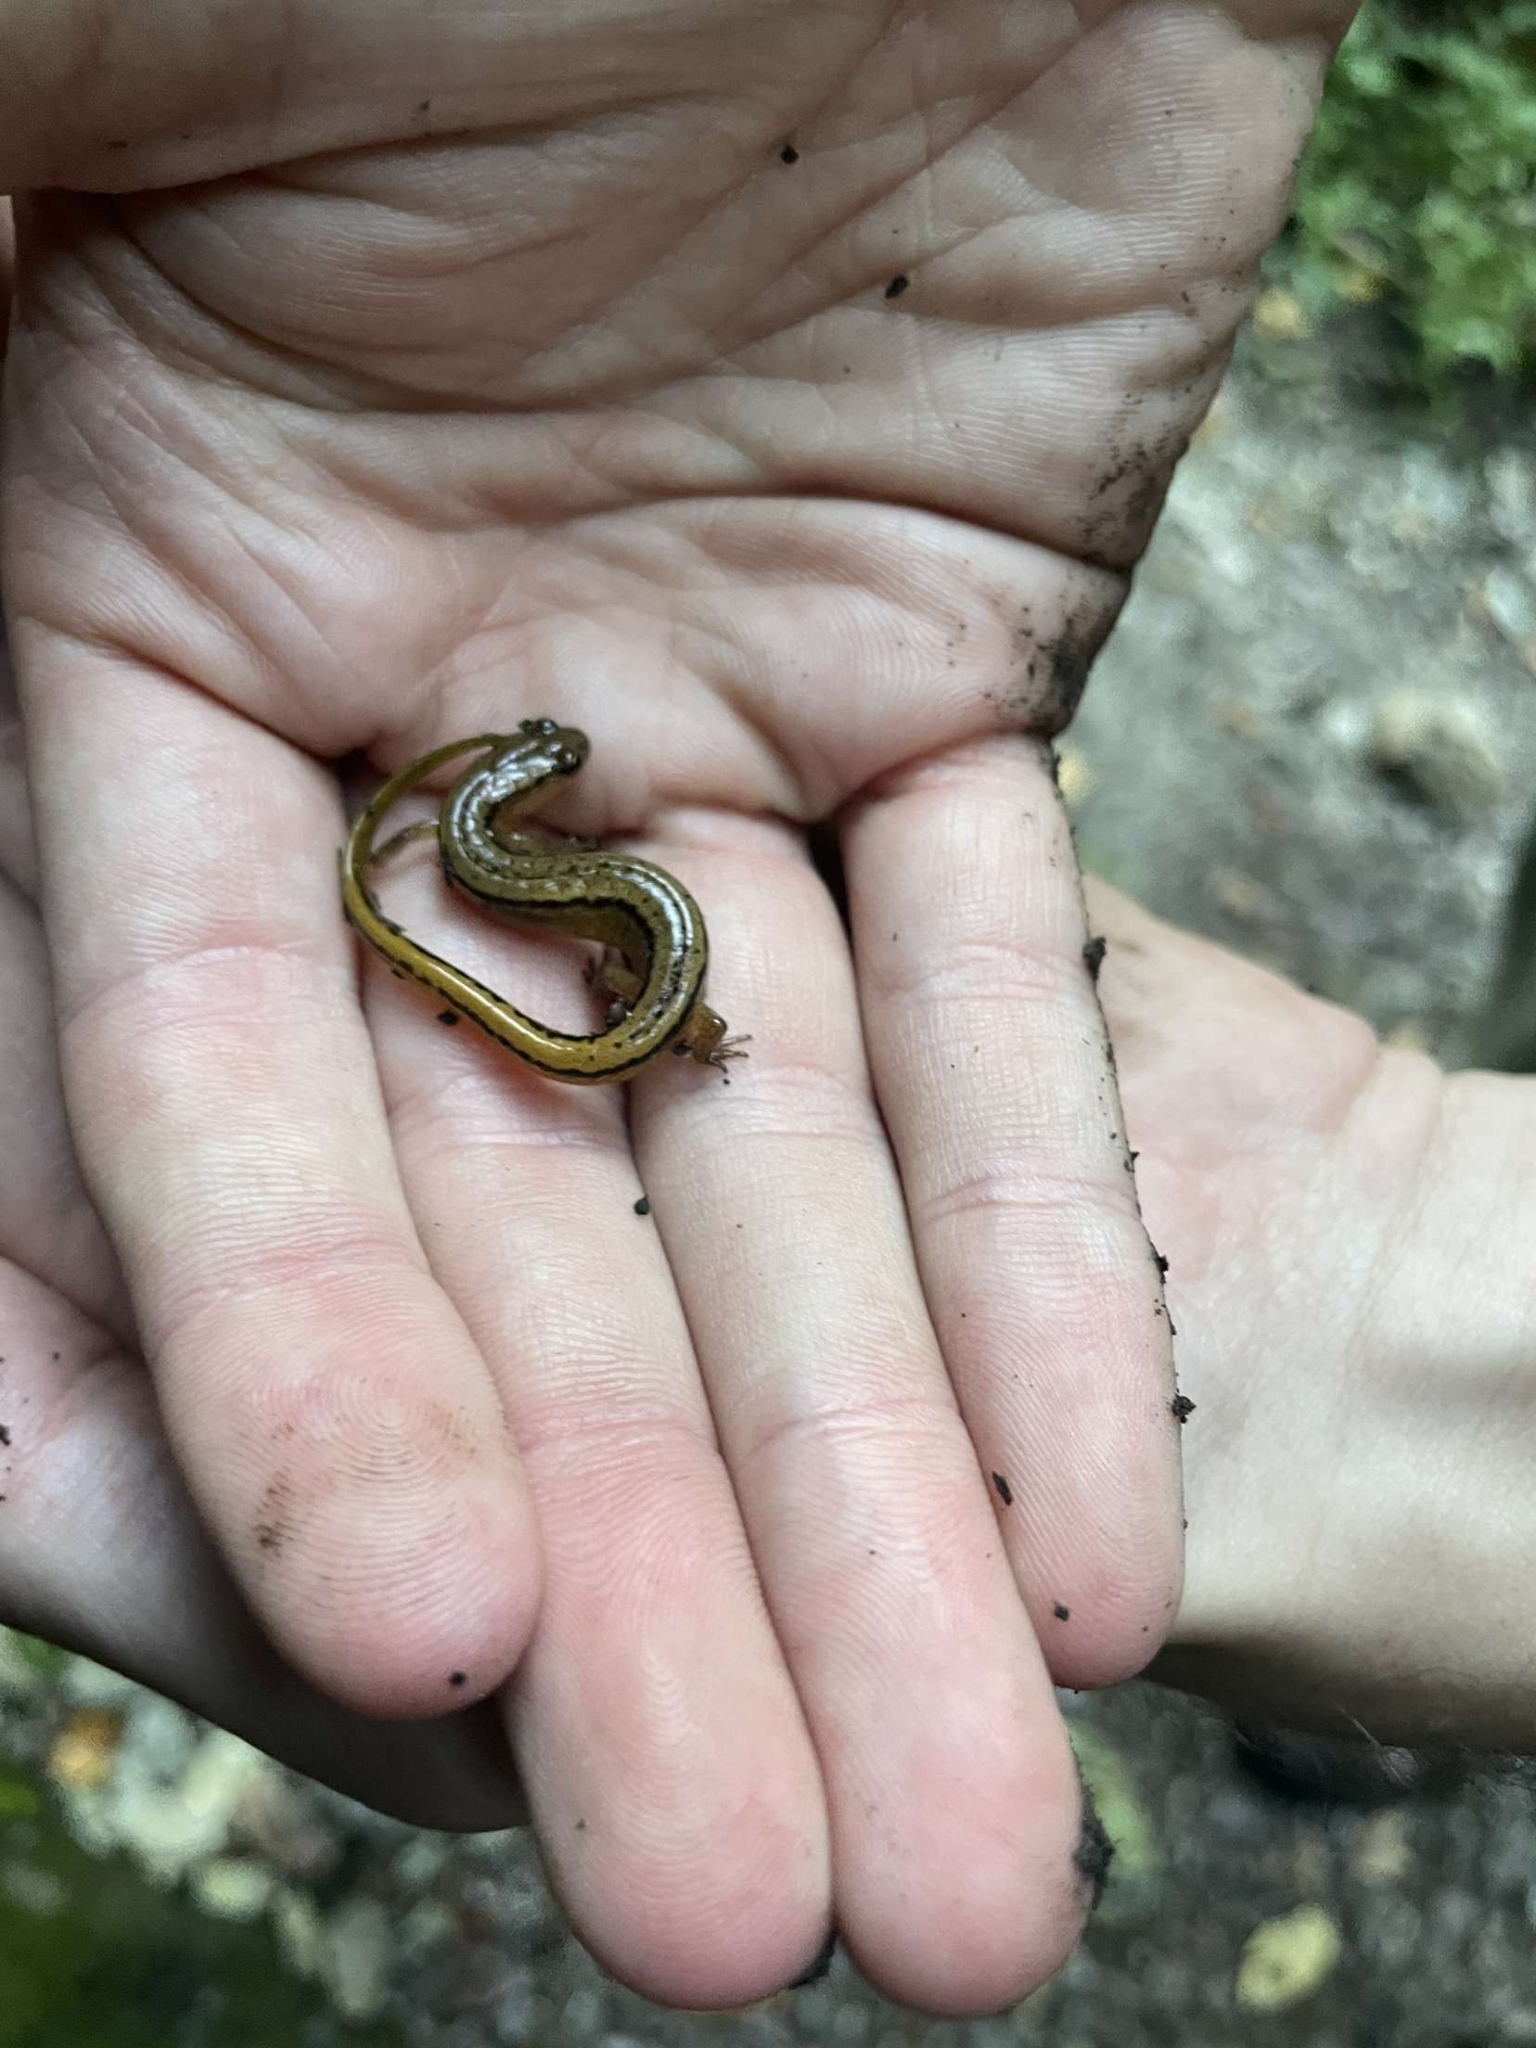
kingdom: Animalia
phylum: Chordata
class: Amphibia
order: Caudata
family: Plethodontidae
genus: Eurycea
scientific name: Eurycea bislineata
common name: Northern two-lined salamander
